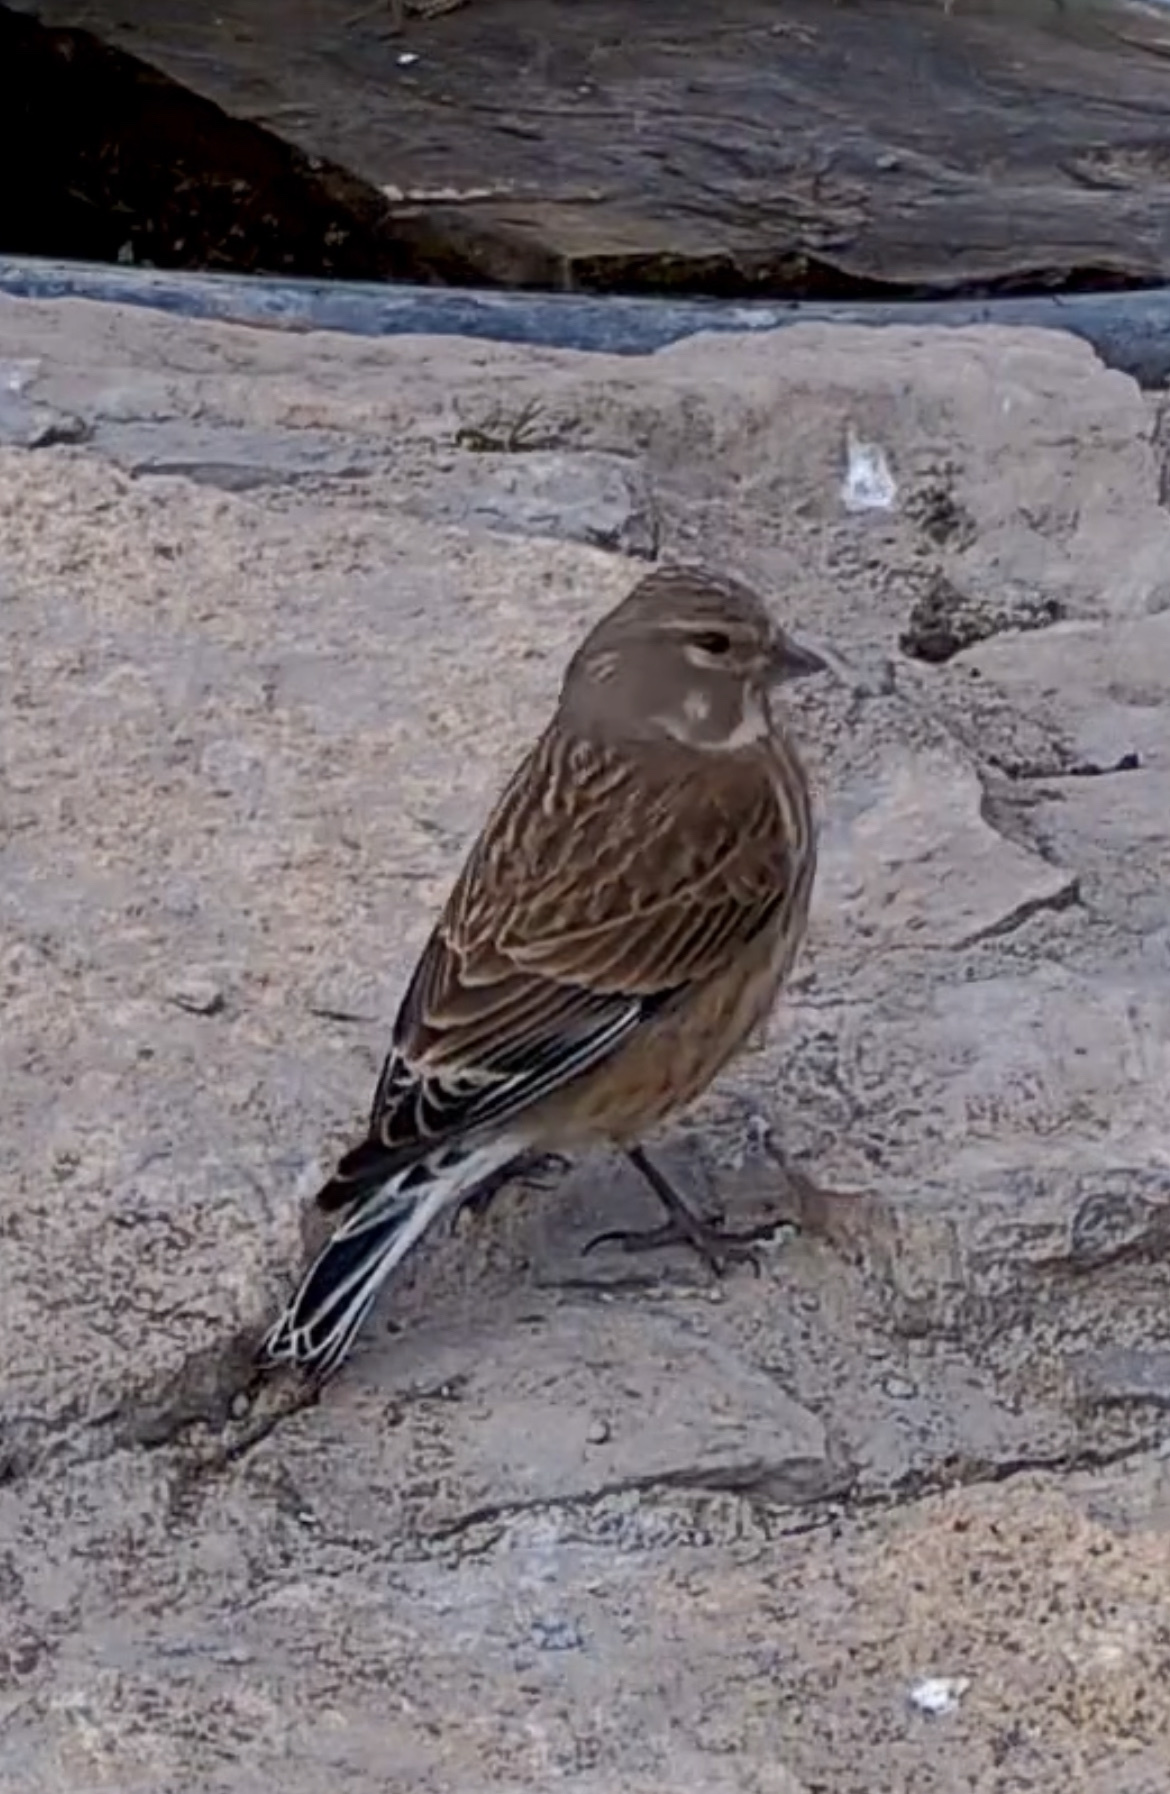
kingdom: Animalia
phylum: Chordata
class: Aves
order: Passeriformes
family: Fringillidae
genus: Linaria
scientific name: Linaria cannabina
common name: Common linnet
